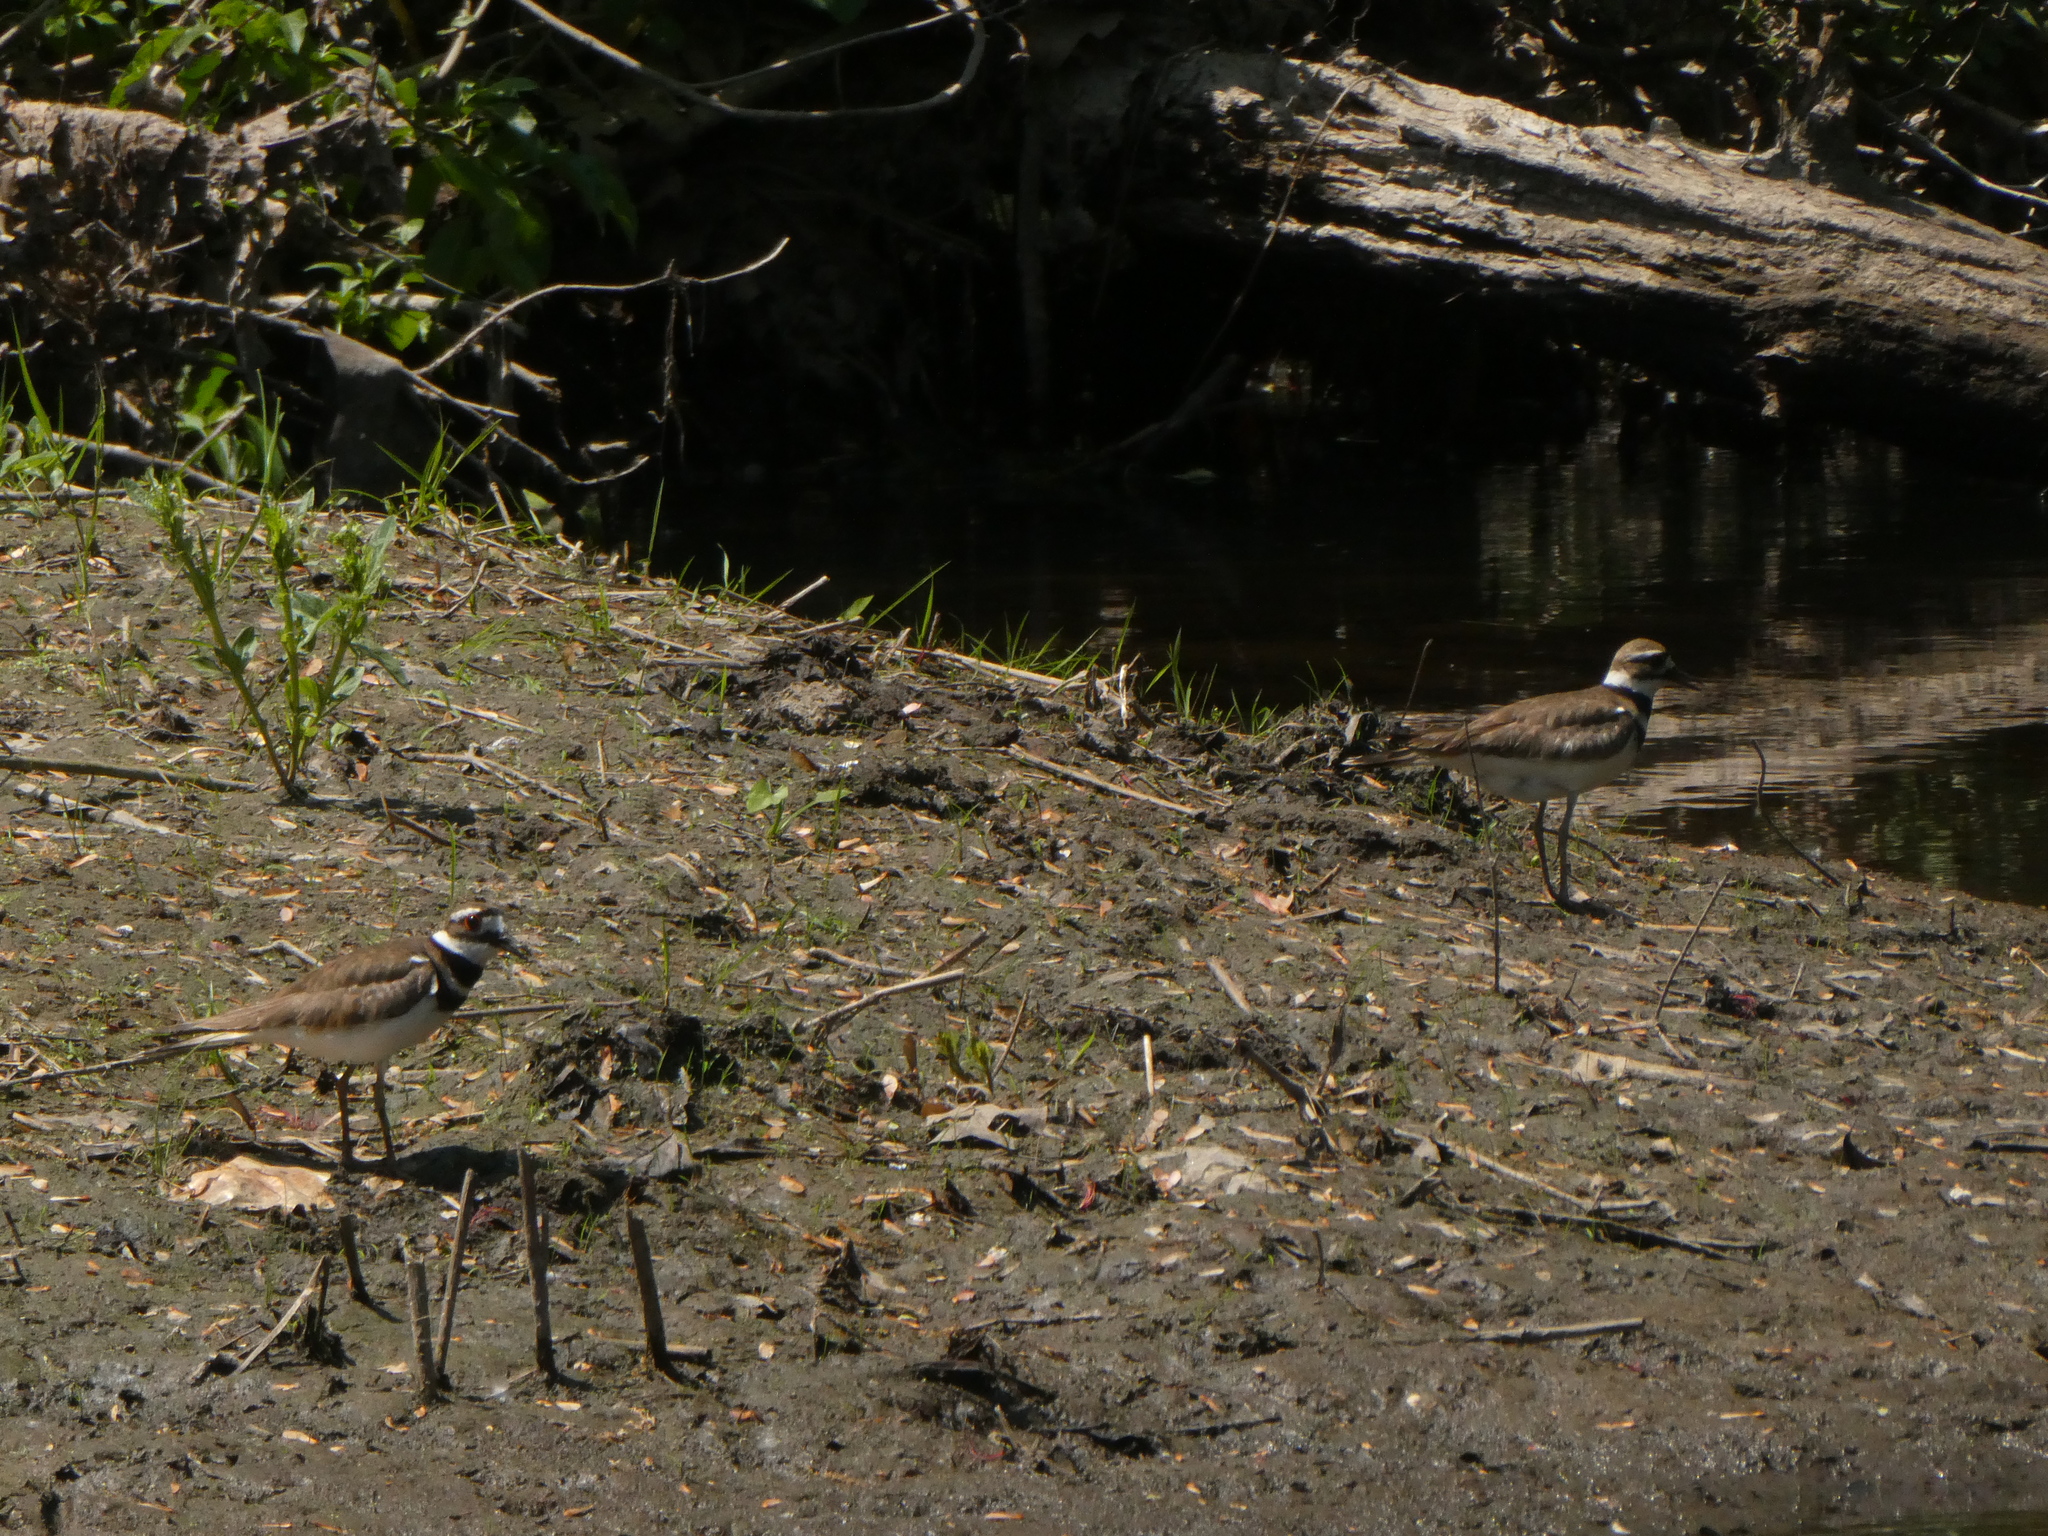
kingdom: Animalia
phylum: Chordata
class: Aves
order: Charadriiformes
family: Charadriidae
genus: Charadrius
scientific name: Charadrius vociferus
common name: Killdeer
